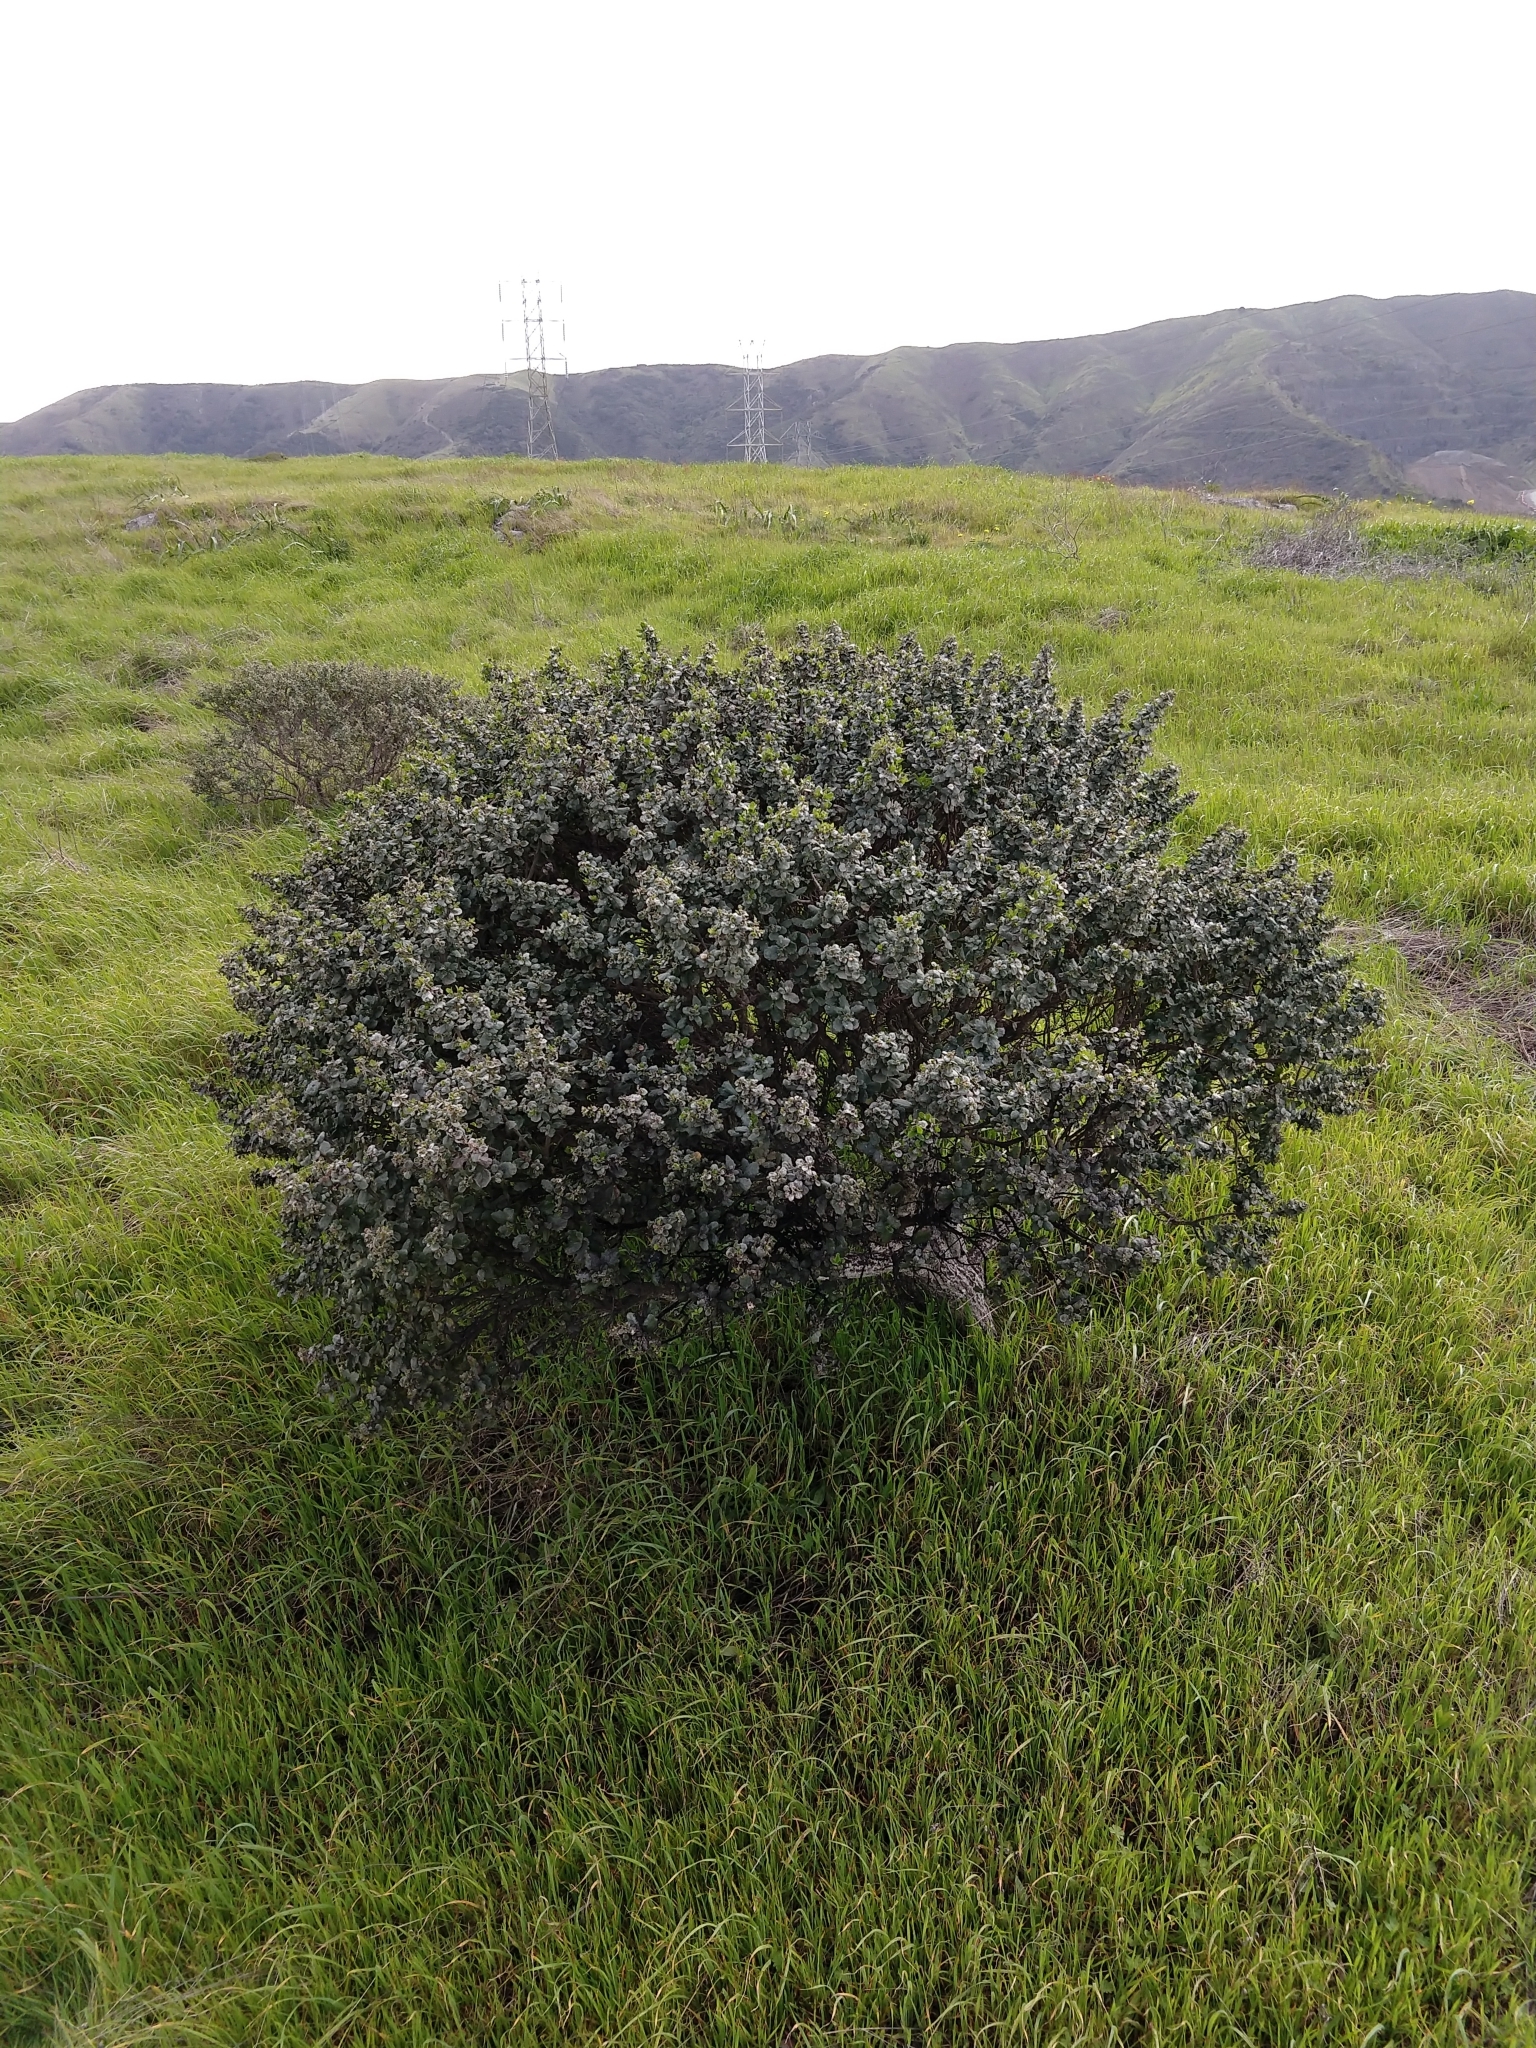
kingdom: Plantae
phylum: Tracheophyta
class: Magnoliopsida
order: Asterales
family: Asteraceae
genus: Baccharis
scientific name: Baccharis pilularis
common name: Coyotebrush
